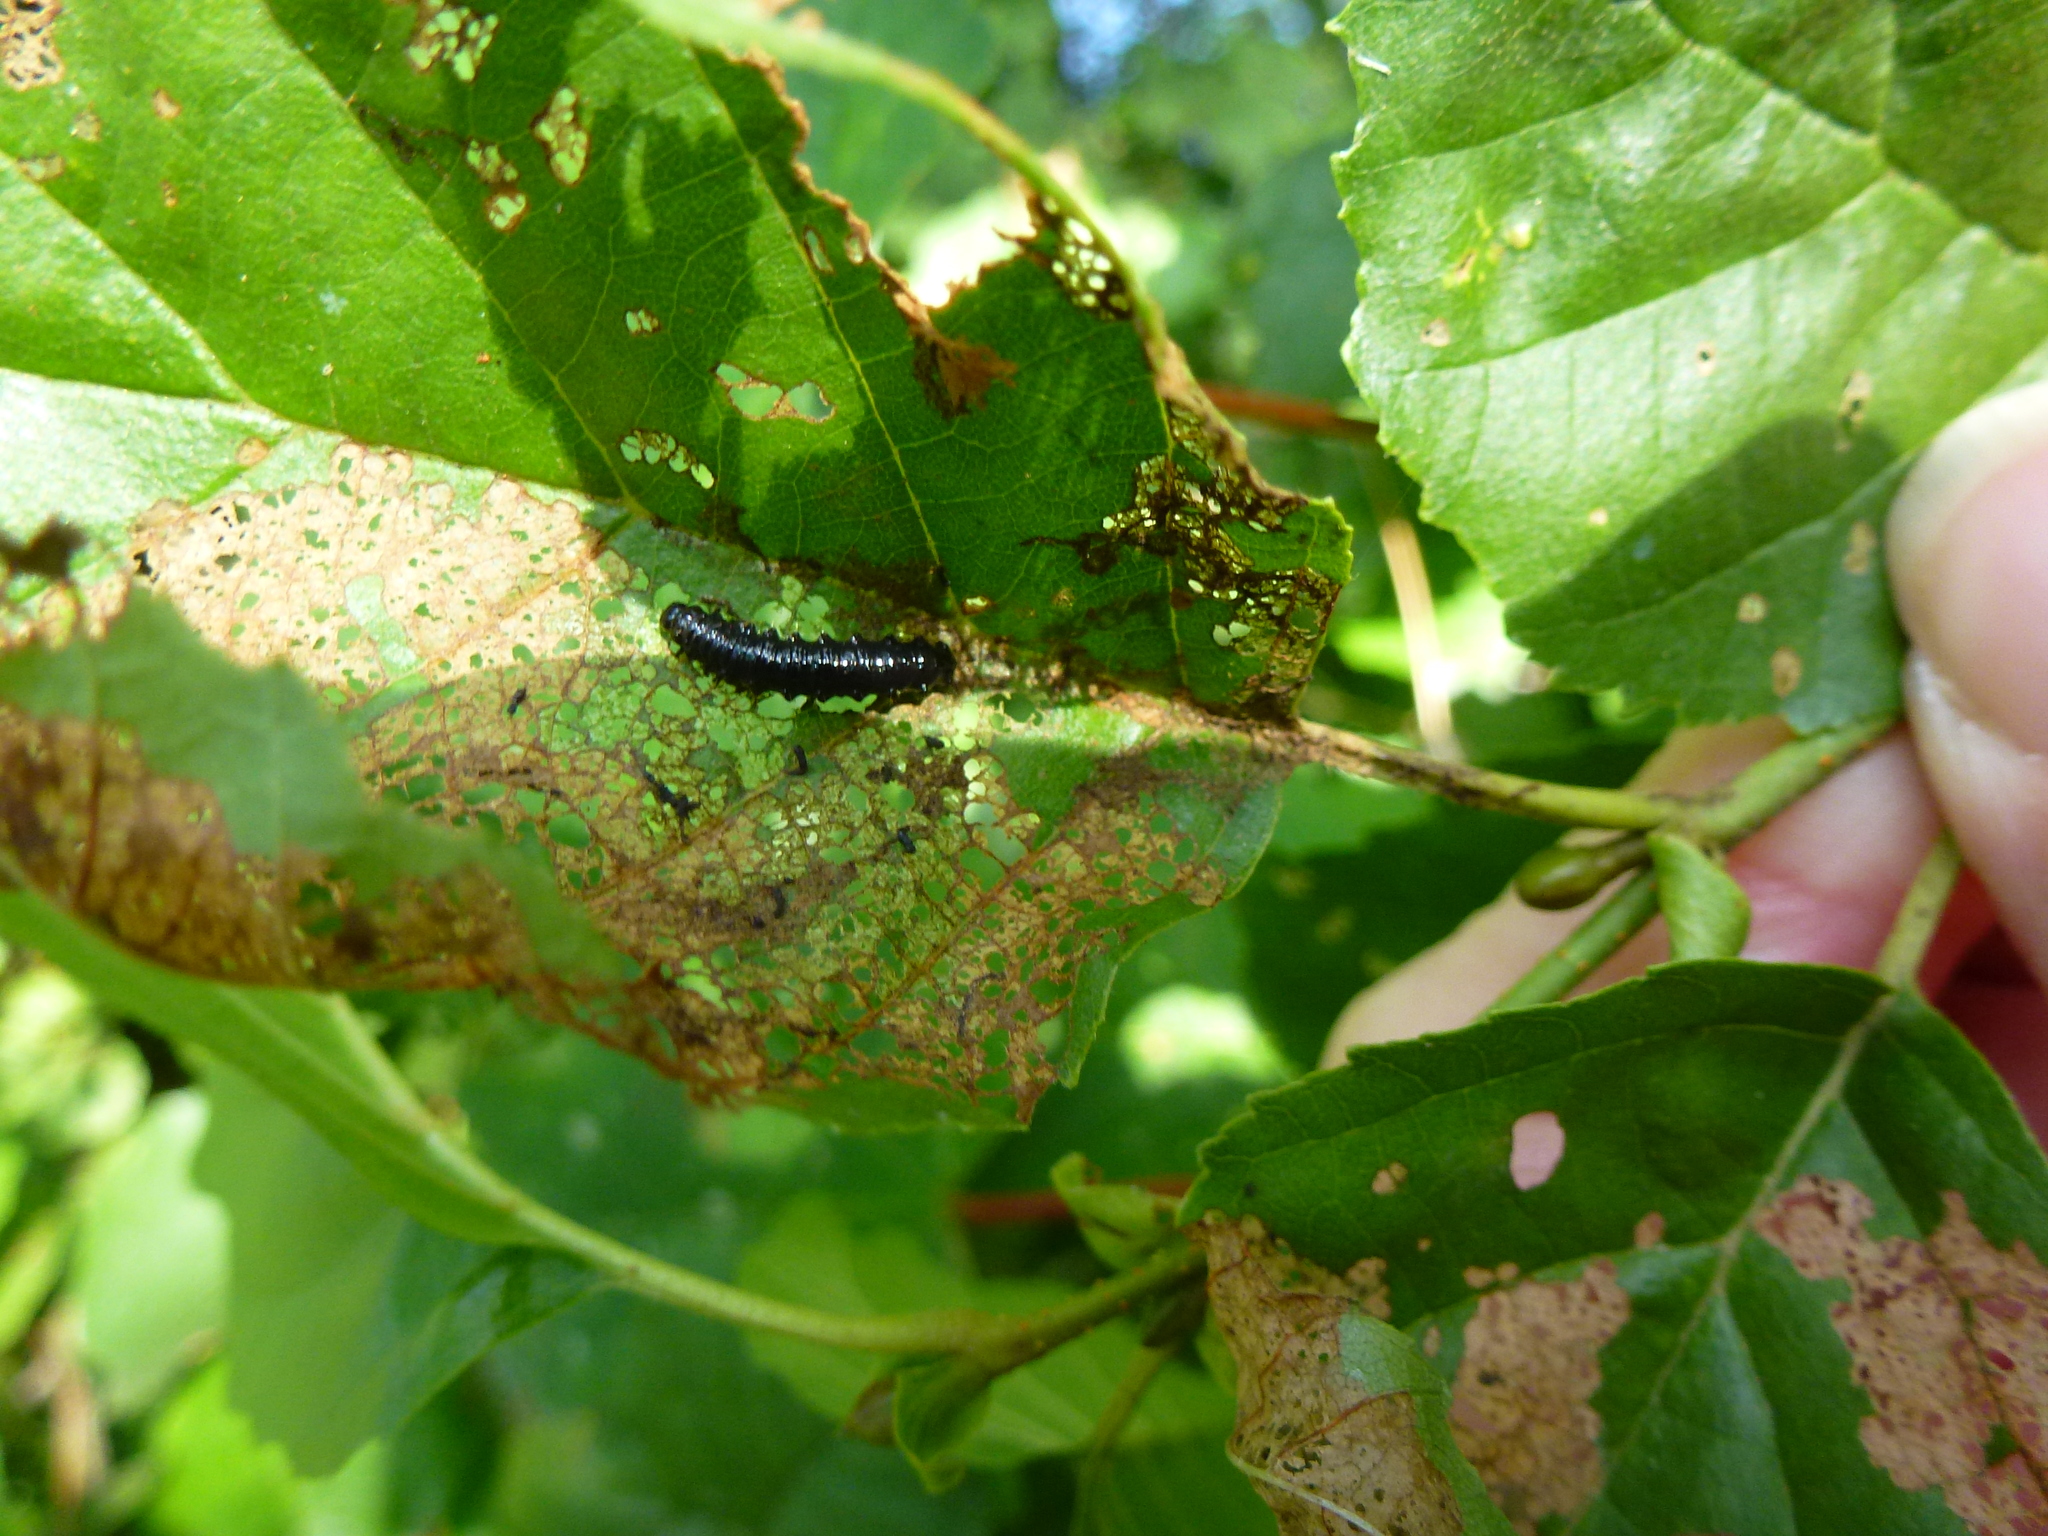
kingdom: Animalia
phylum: Arthropoda
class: Insecta
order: Coleoptera
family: Chrysomelidae
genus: Agelastica
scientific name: Agelastica alni
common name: Alder leaf beetle
